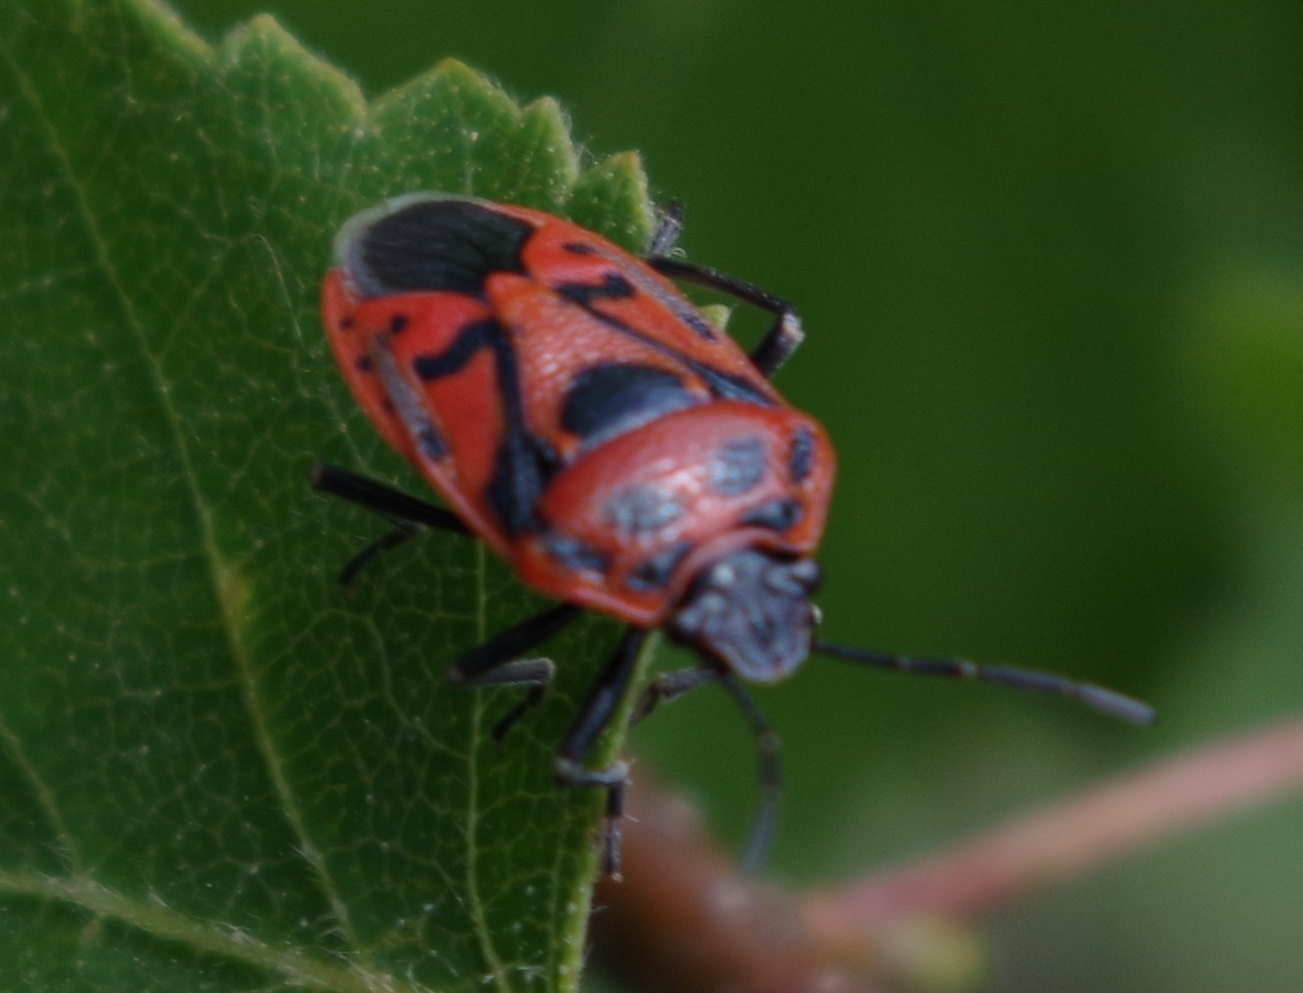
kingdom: Animalia
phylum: Arthropoda
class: Insecta
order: Hemiptera
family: Pentatomidae
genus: Eurydema
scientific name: Eurydema ornata
